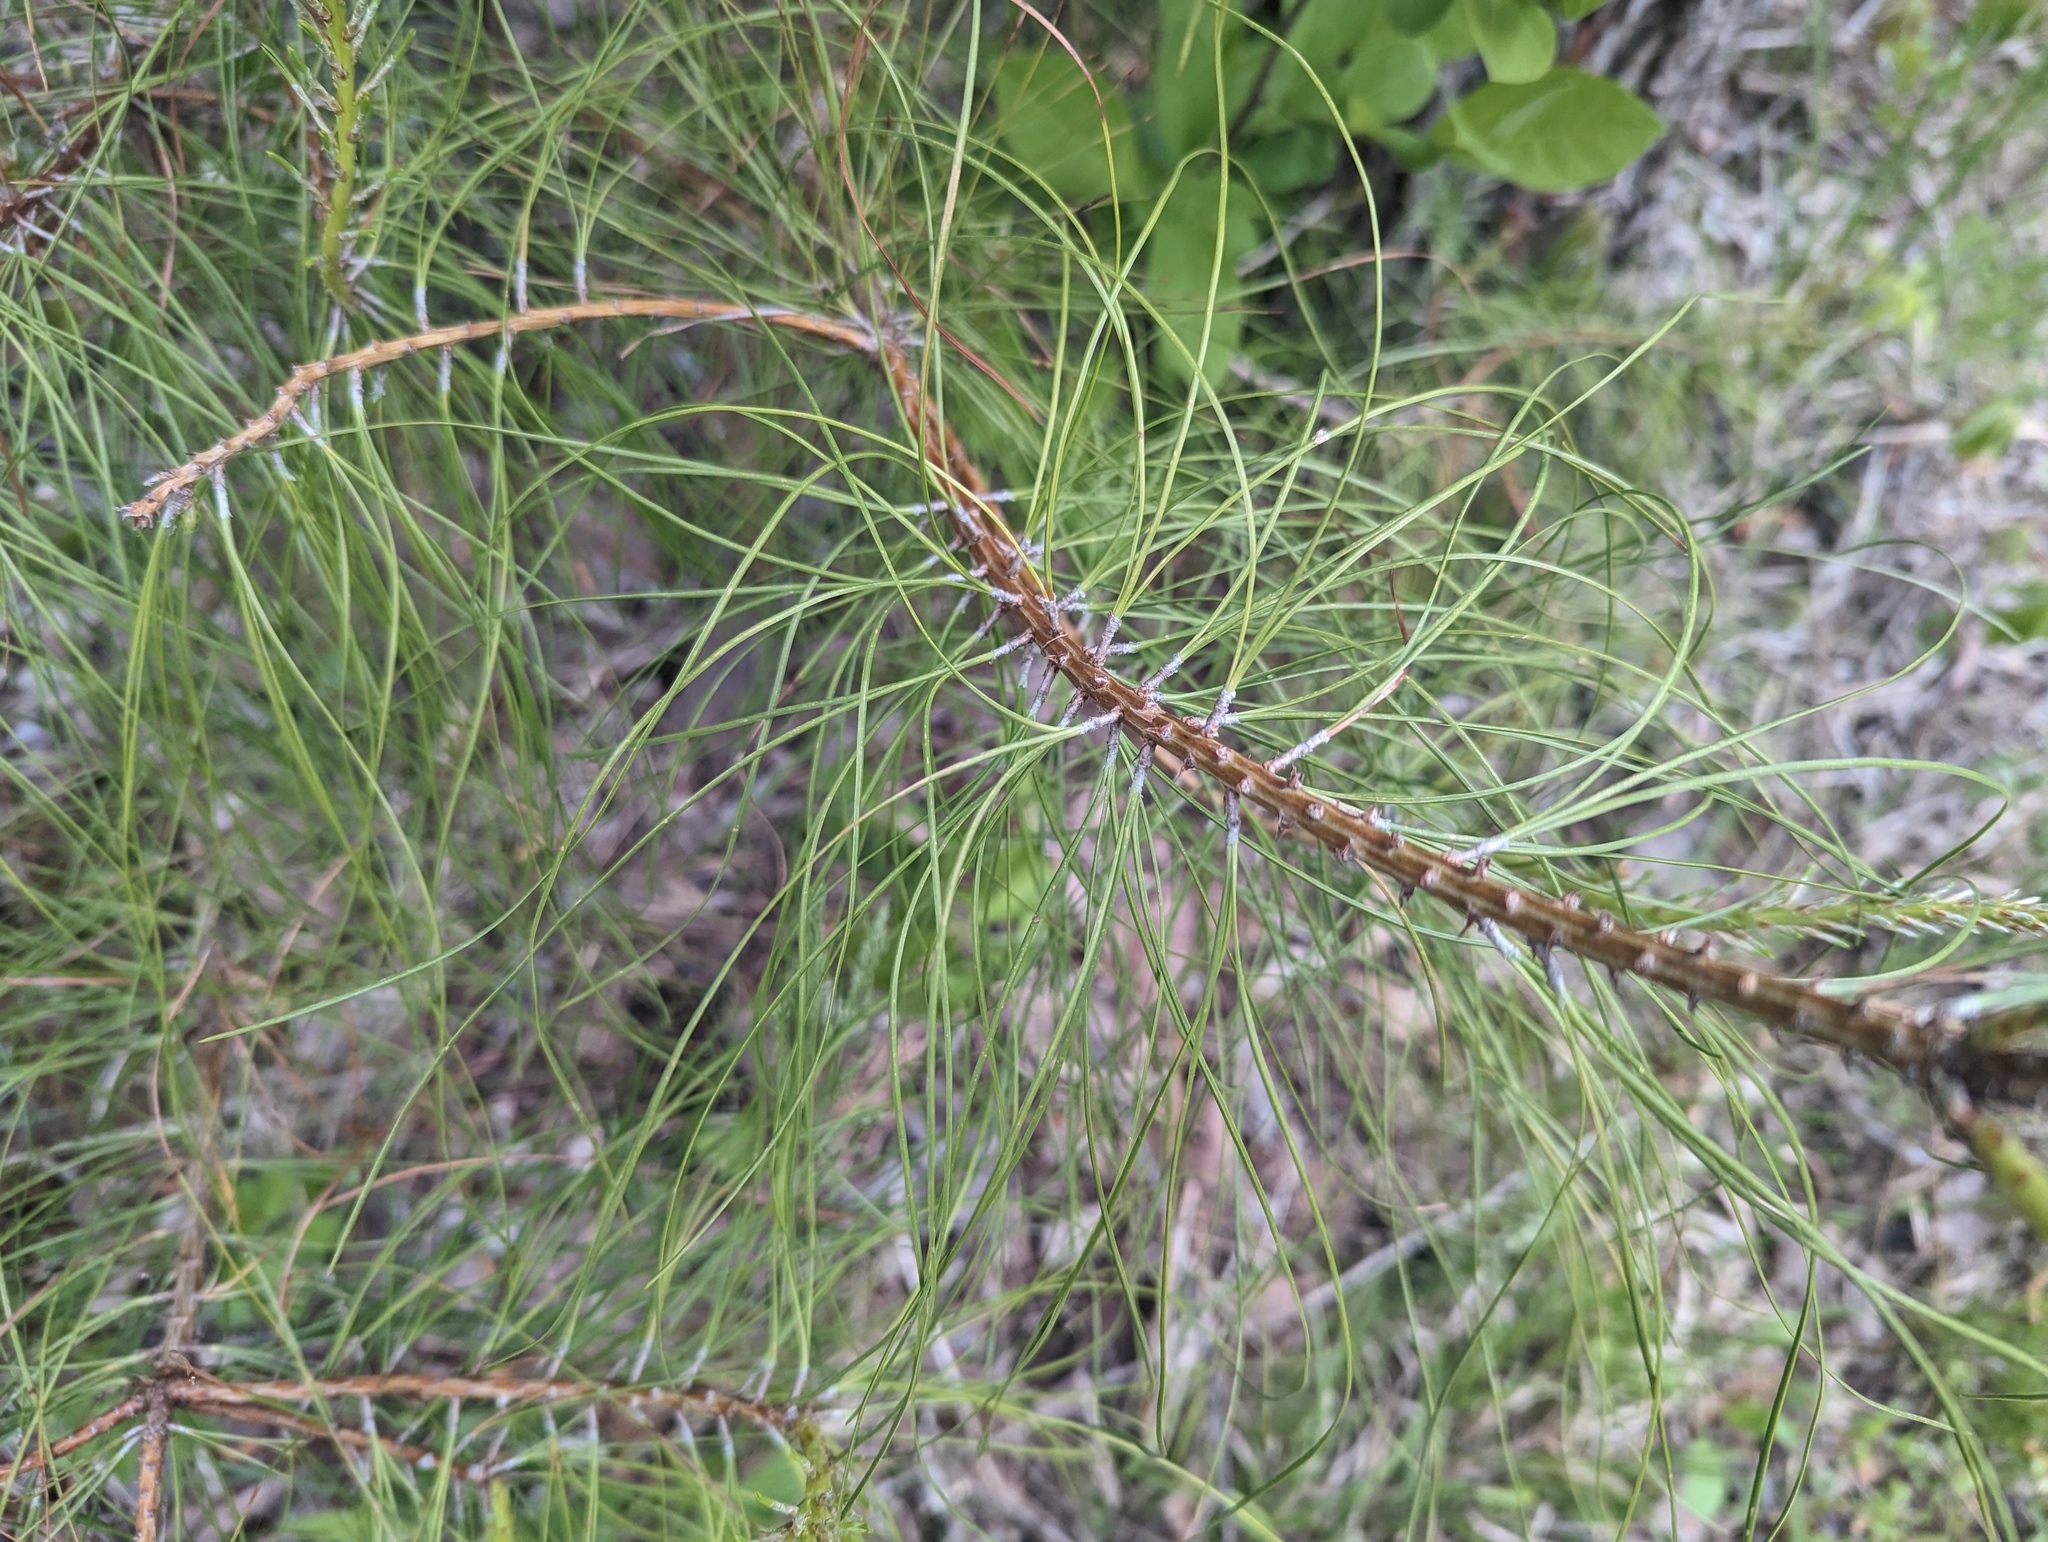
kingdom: Plantae
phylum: Tracheophyta
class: Pinopsida
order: Pinales
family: Pinaceae
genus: Pinus
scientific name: Pinus taeda
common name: Loblolly pine
